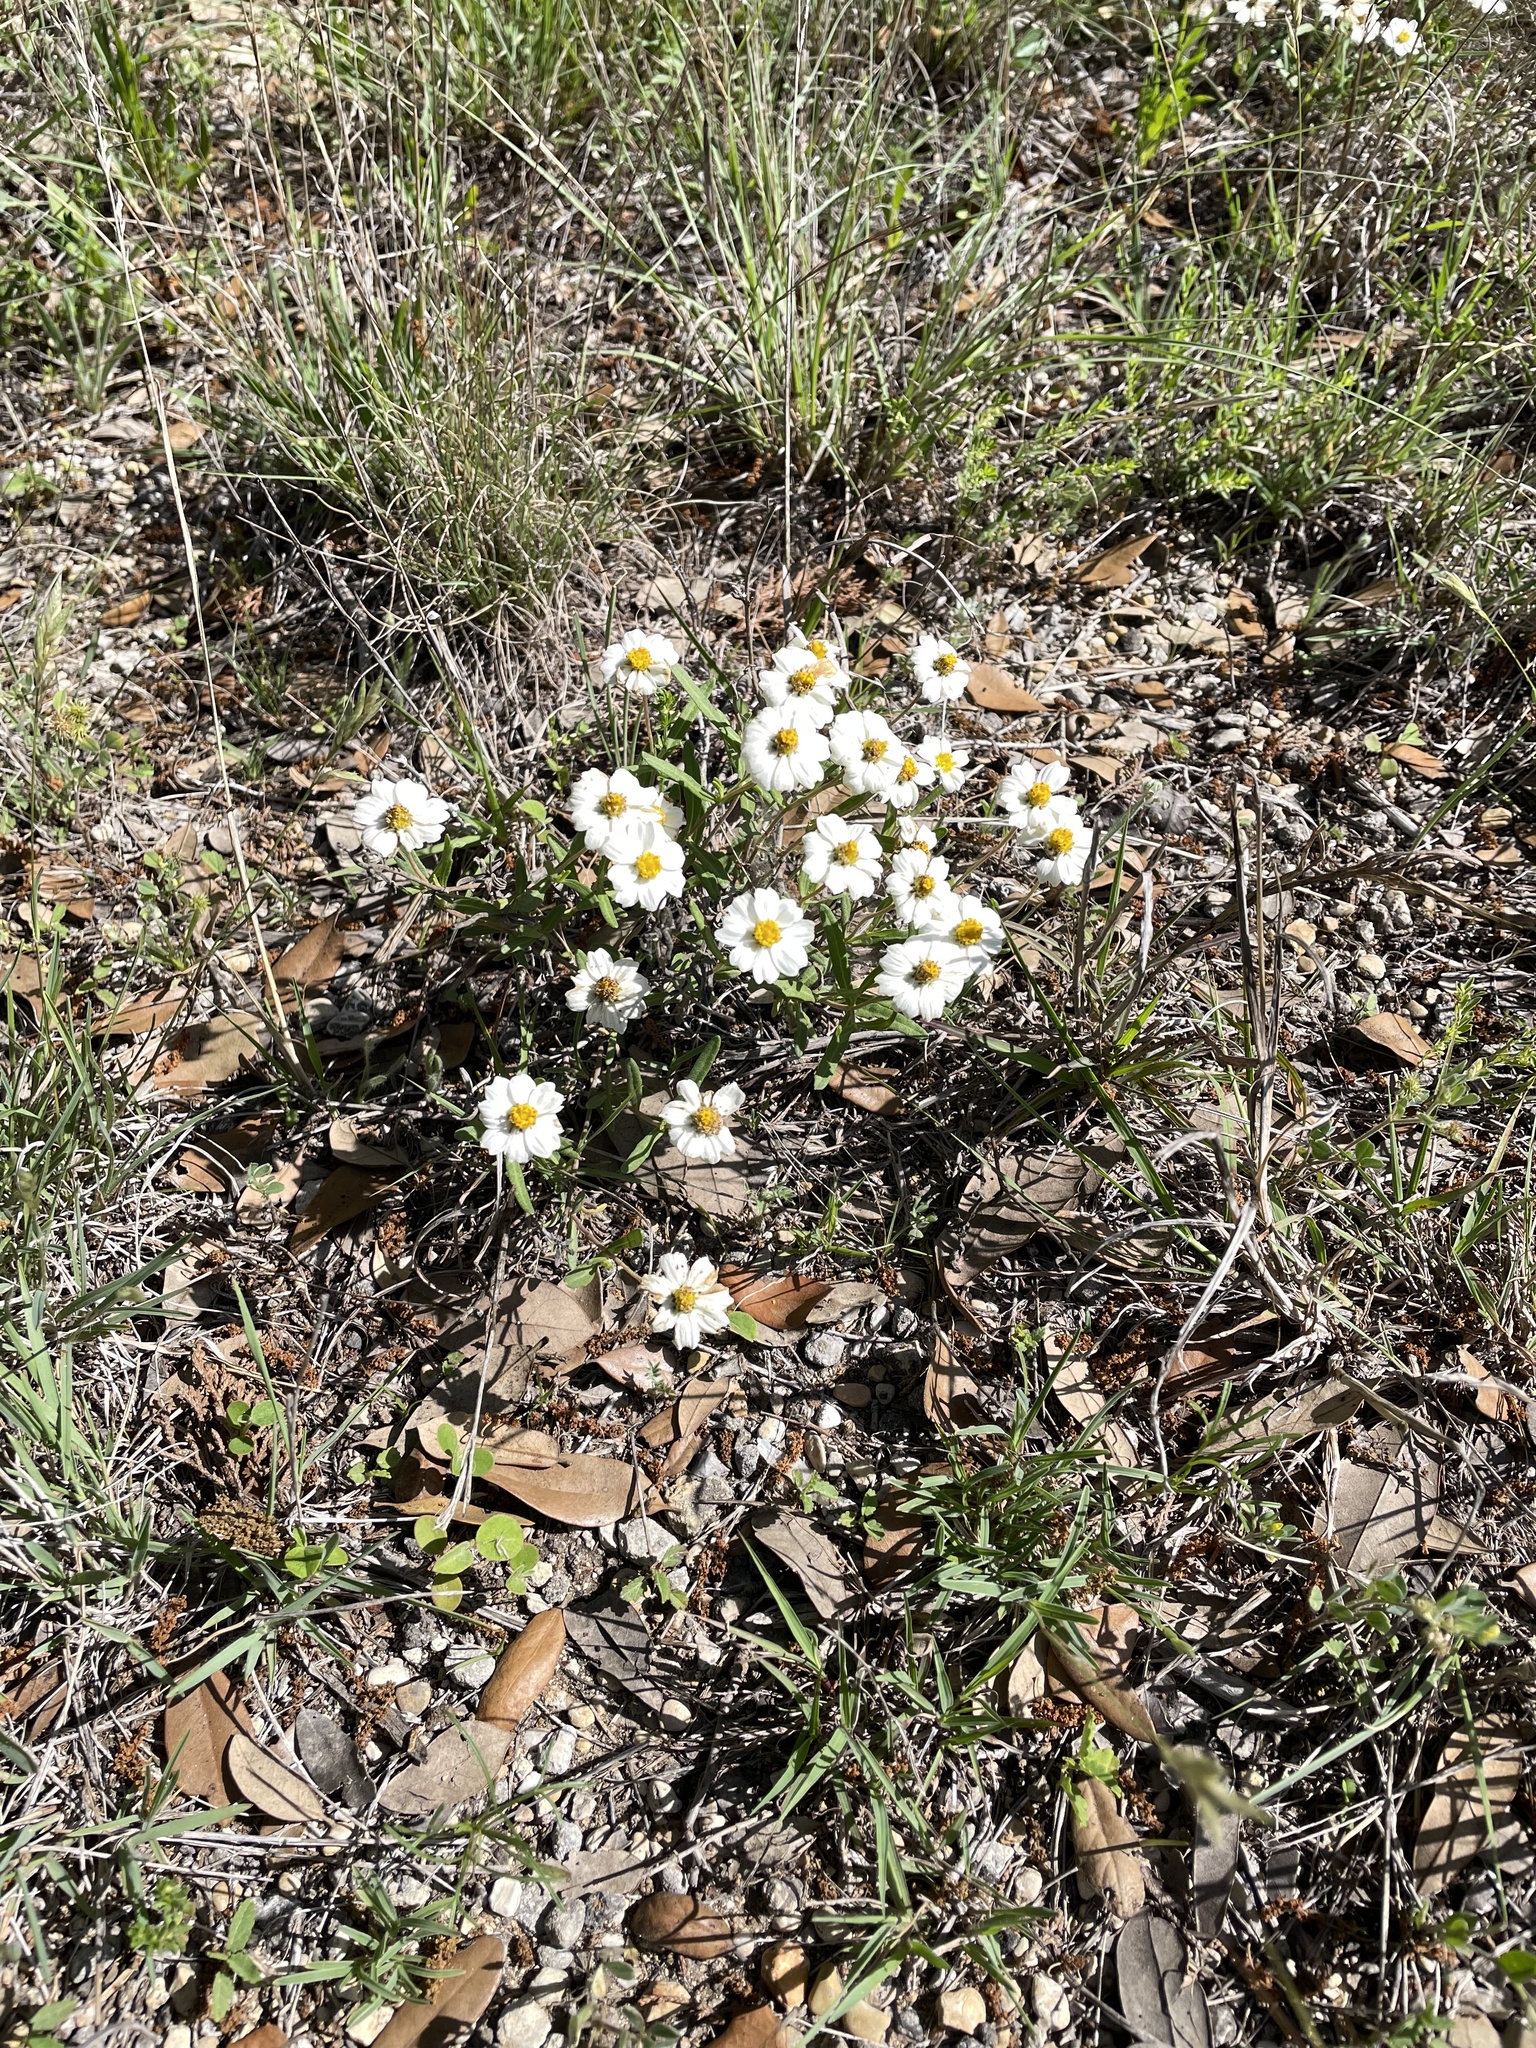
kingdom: Plantae
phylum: Tracheophyta
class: Magnoliopsida
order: Asterales
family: Asteraceae
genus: Melampodium
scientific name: Melampodium leucanthum
